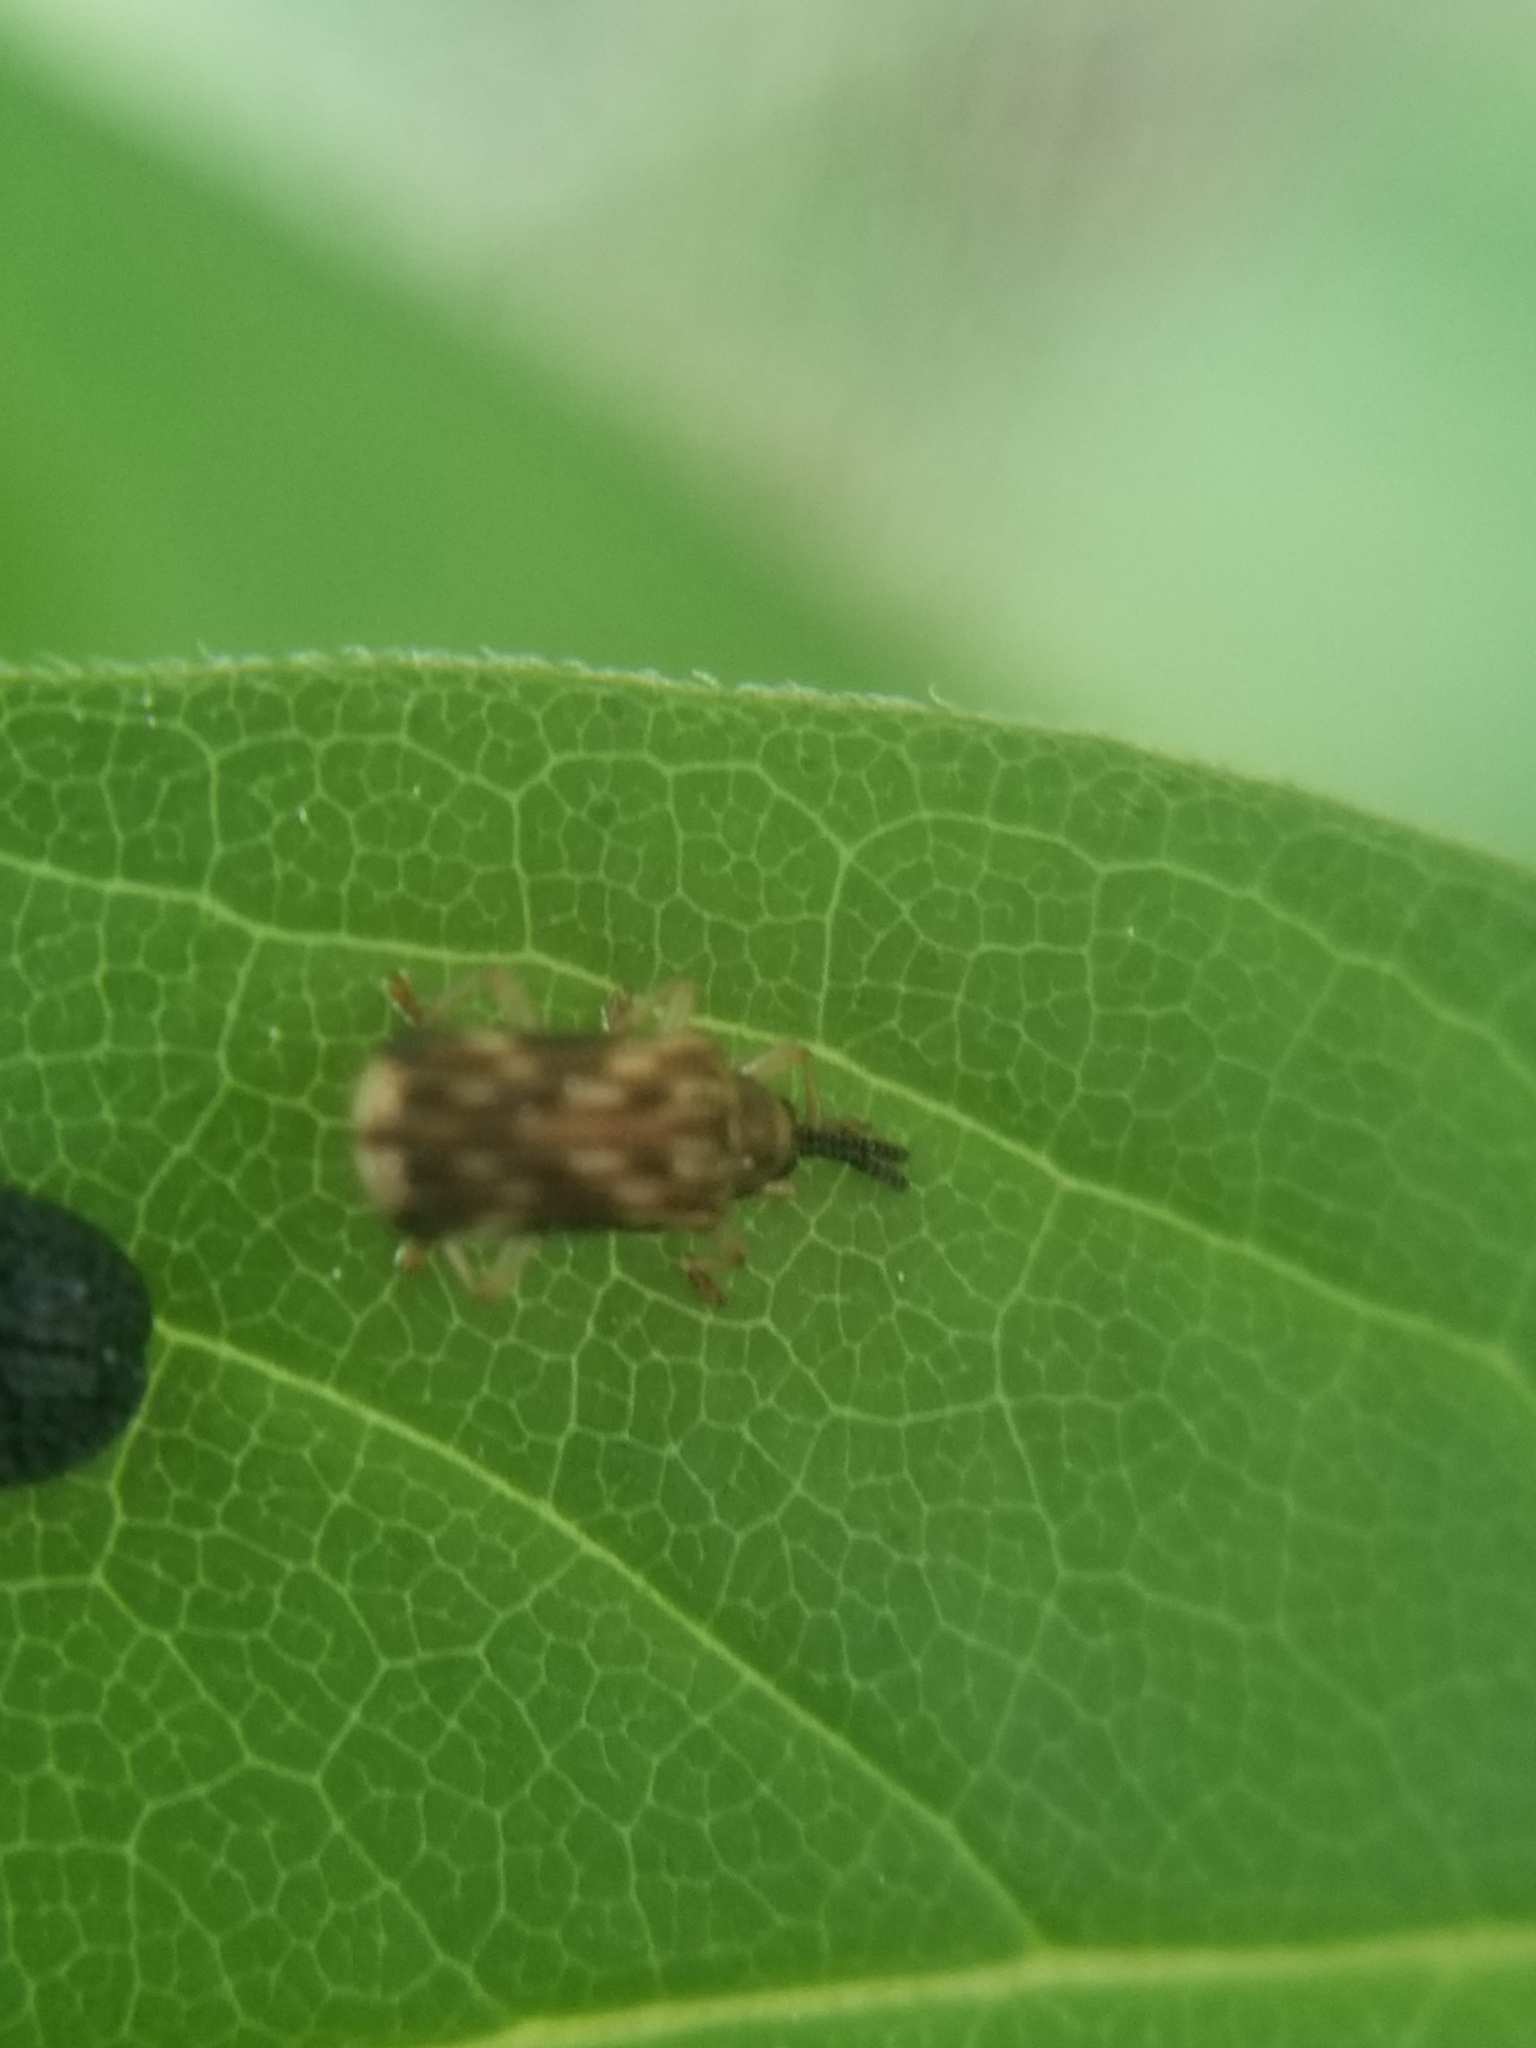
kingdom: Animalia
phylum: Arthropoda
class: Insecta
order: Coleoptera
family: Chrysomelidae
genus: Sumitrosis
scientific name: Sumitrosis inaequalis
